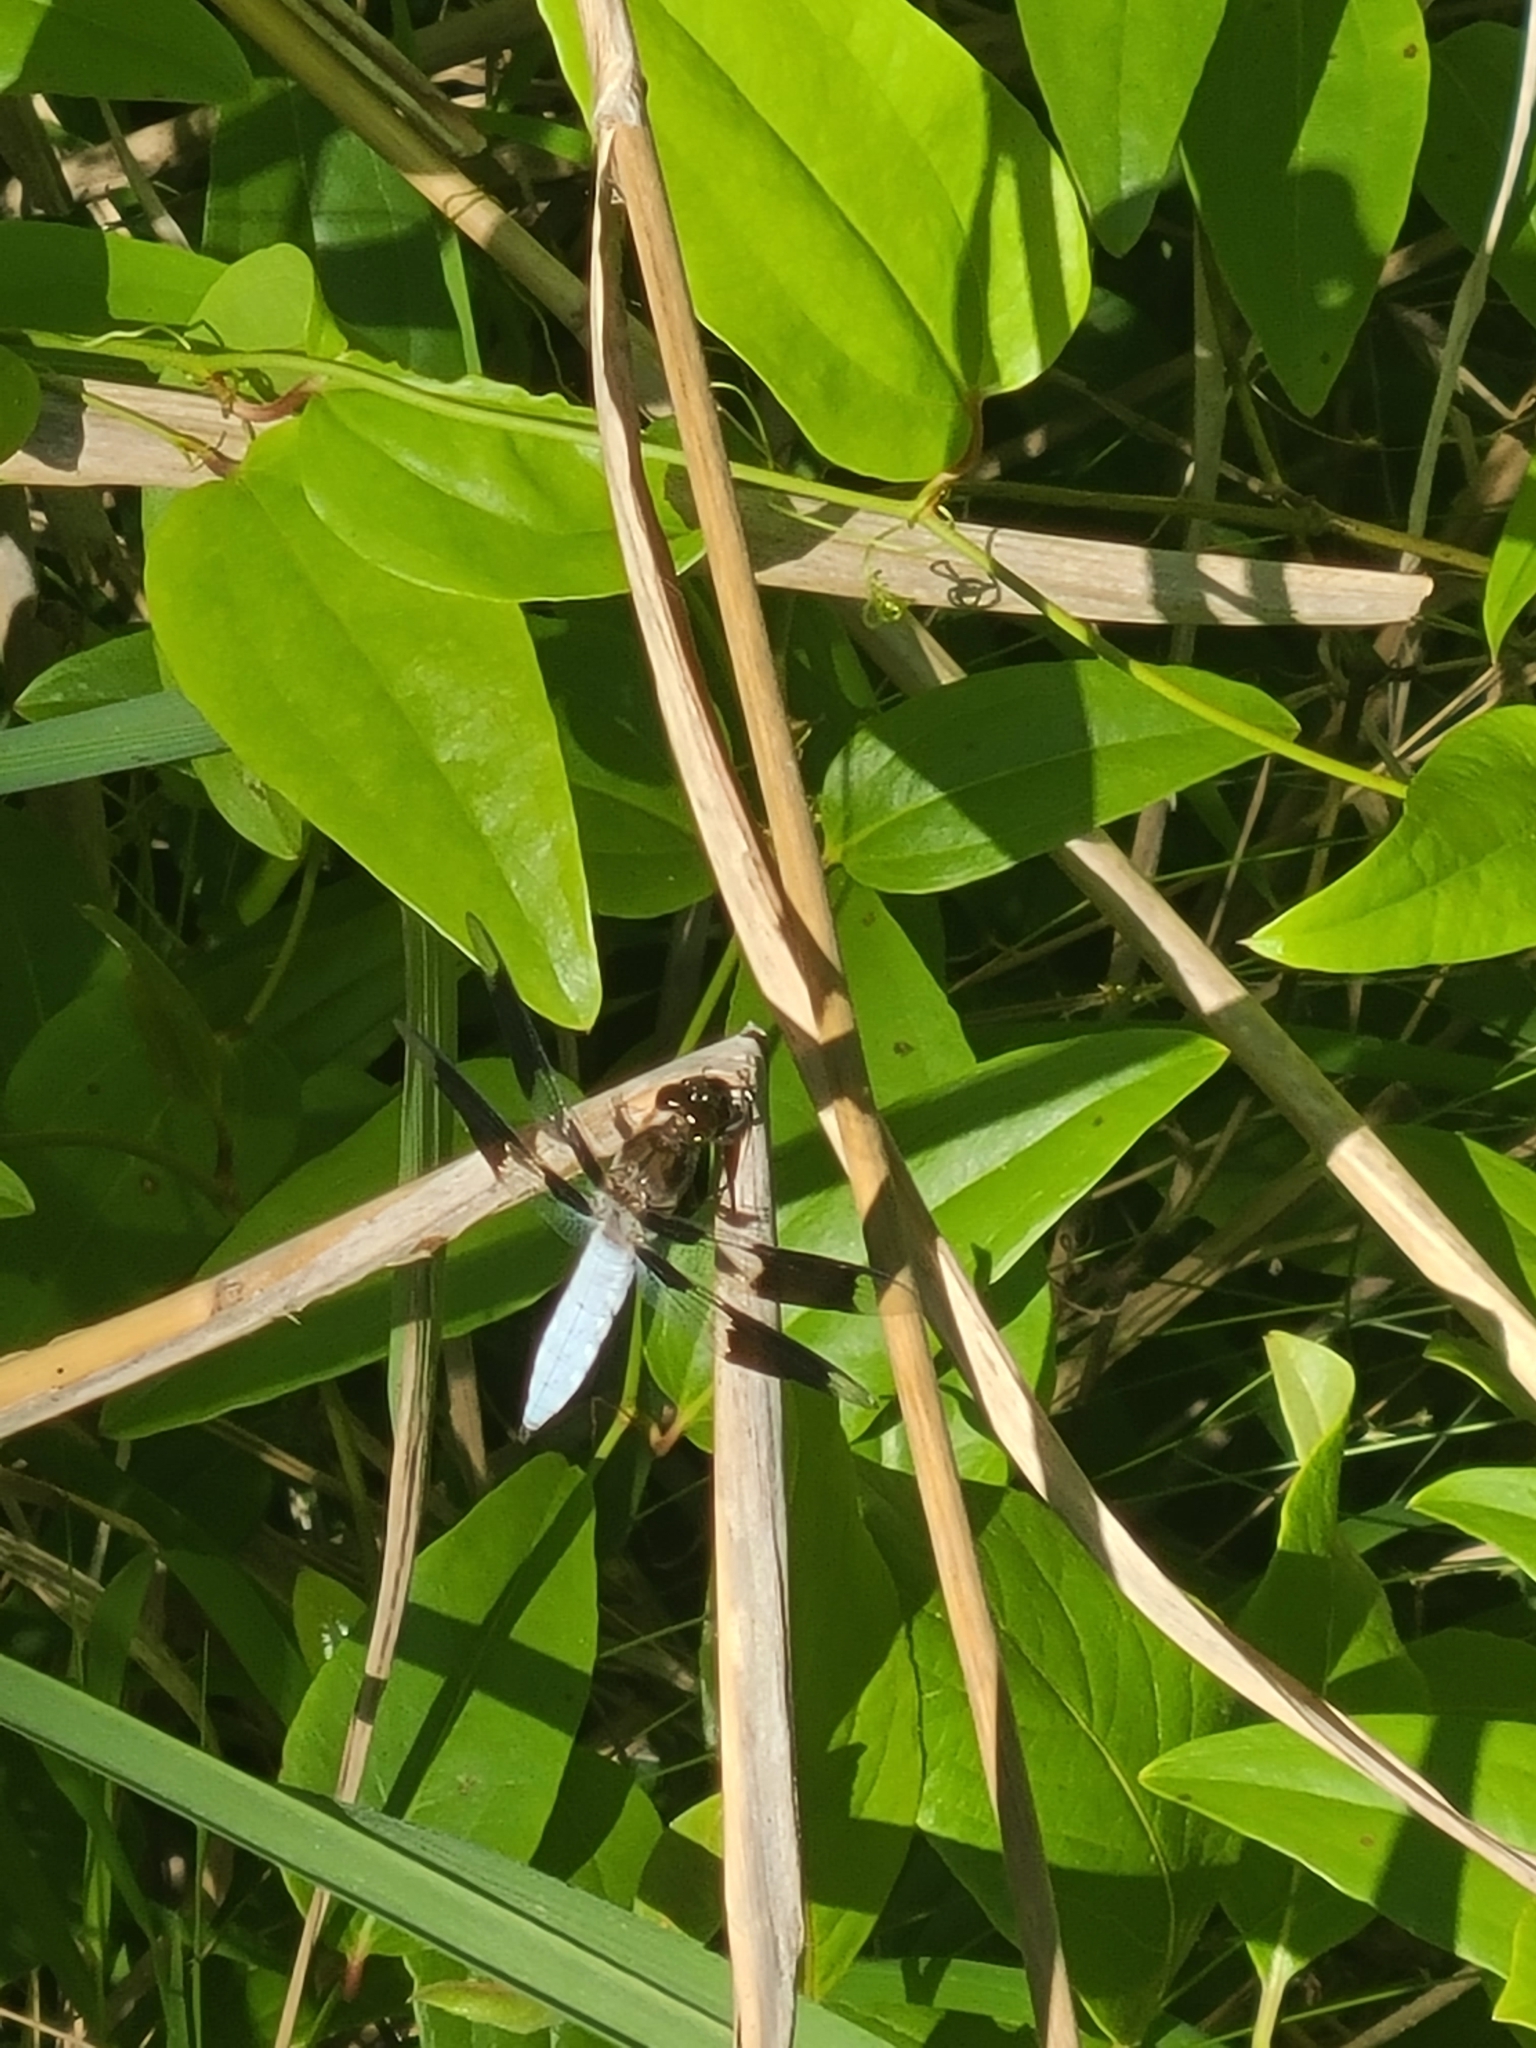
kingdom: Animalia
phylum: Arthropoda
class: Insecta
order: Odonata
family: Libellulidae
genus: Plathemis
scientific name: Plathemis lydia
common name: Common whitetail
